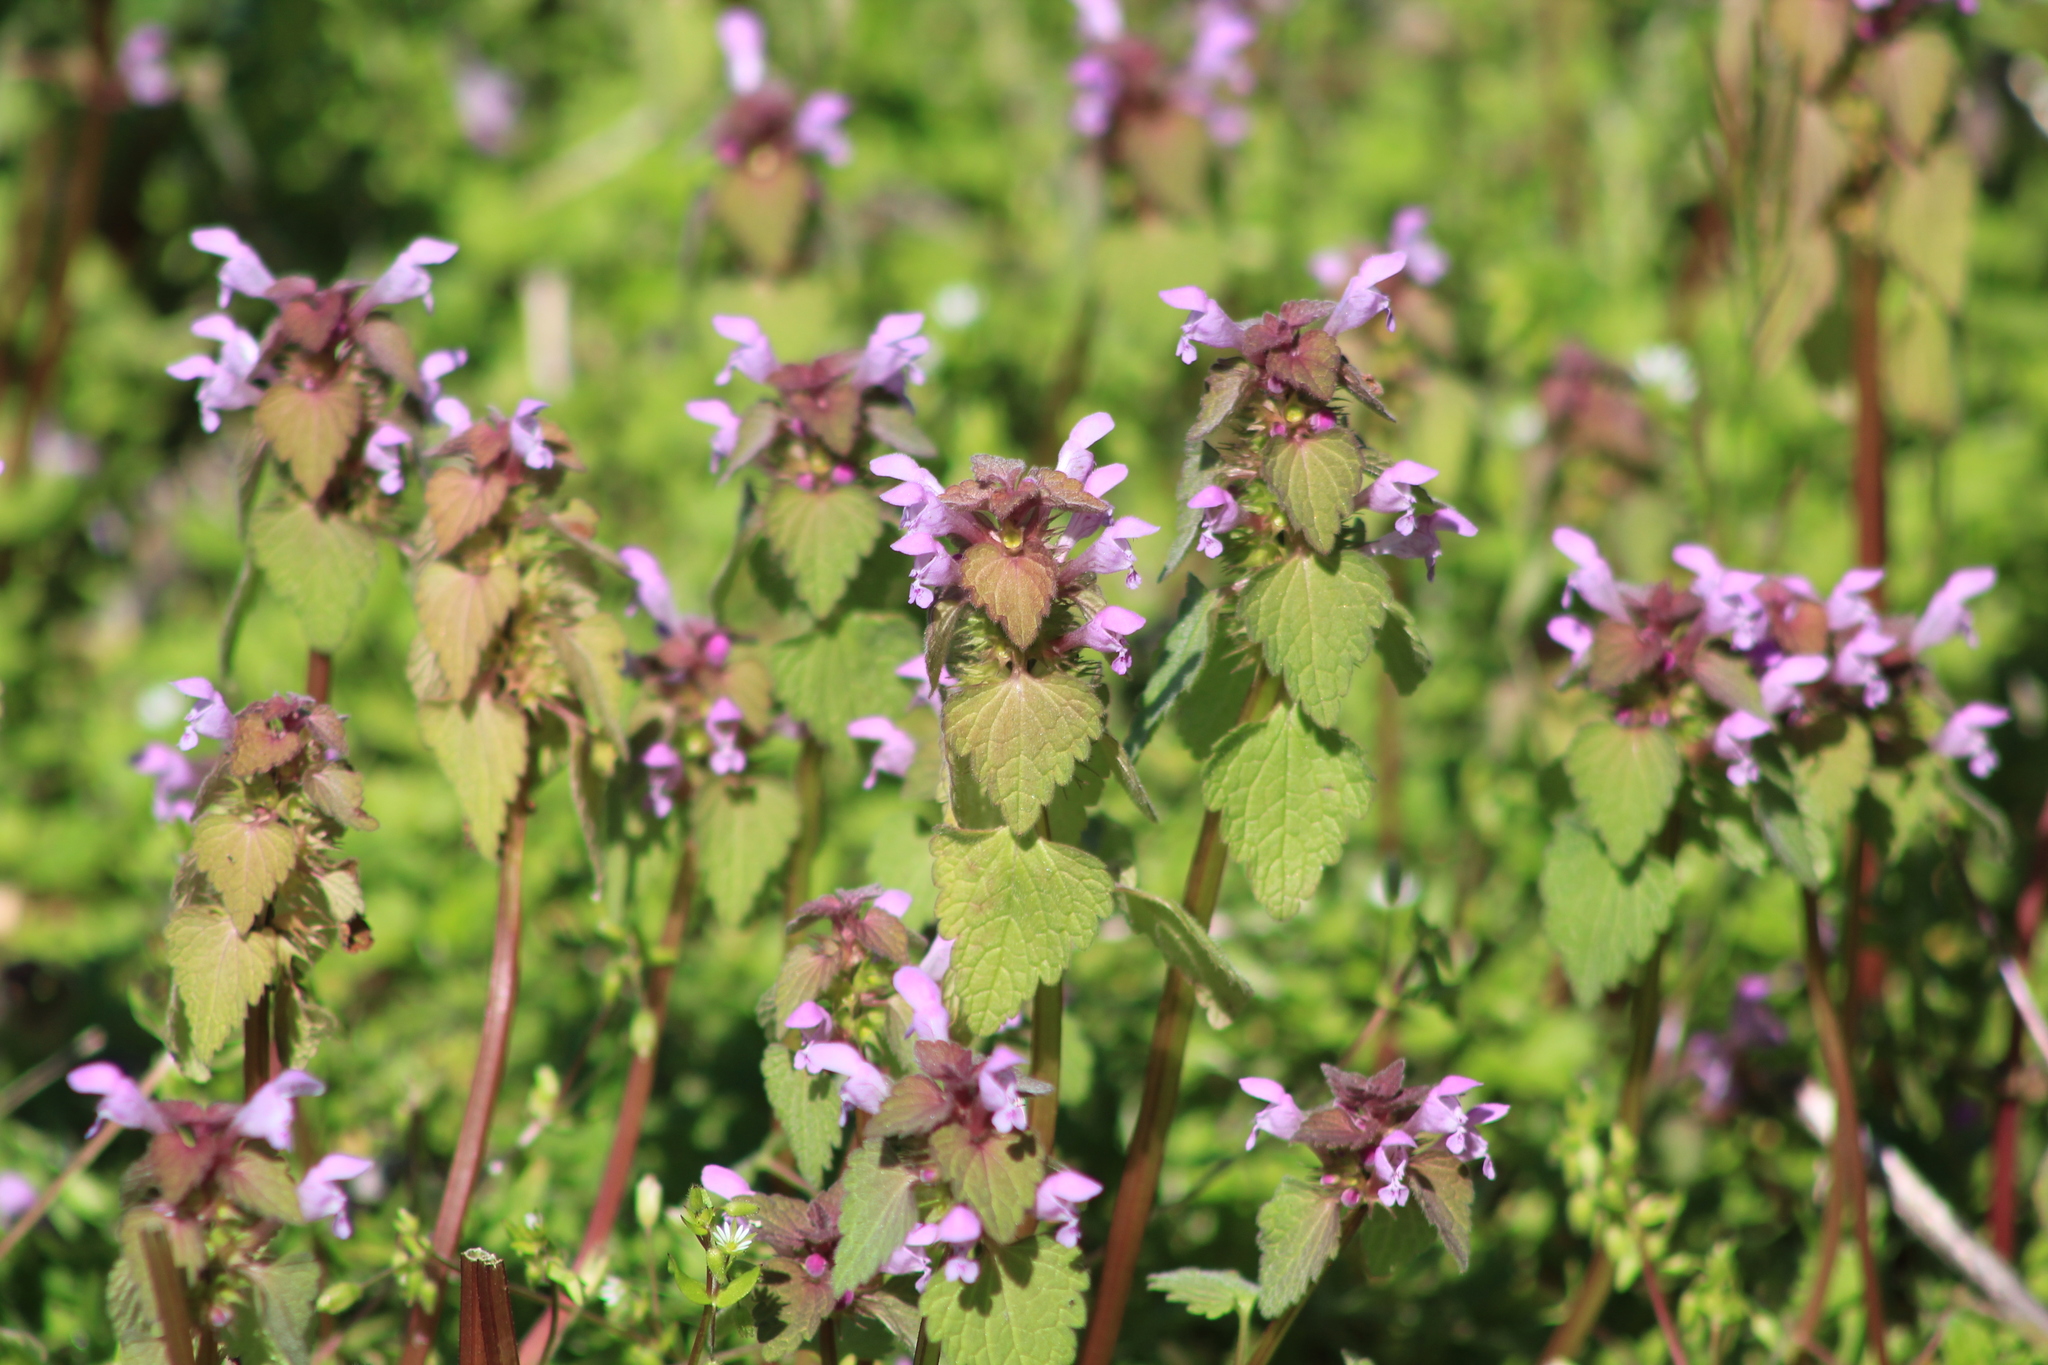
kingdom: Plantae
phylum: Tracheophyta
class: Magnoliopsida
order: Lamiales
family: Lamiaceae
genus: Lamium
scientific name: Lamium purpureum
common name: Red dead-nettle
